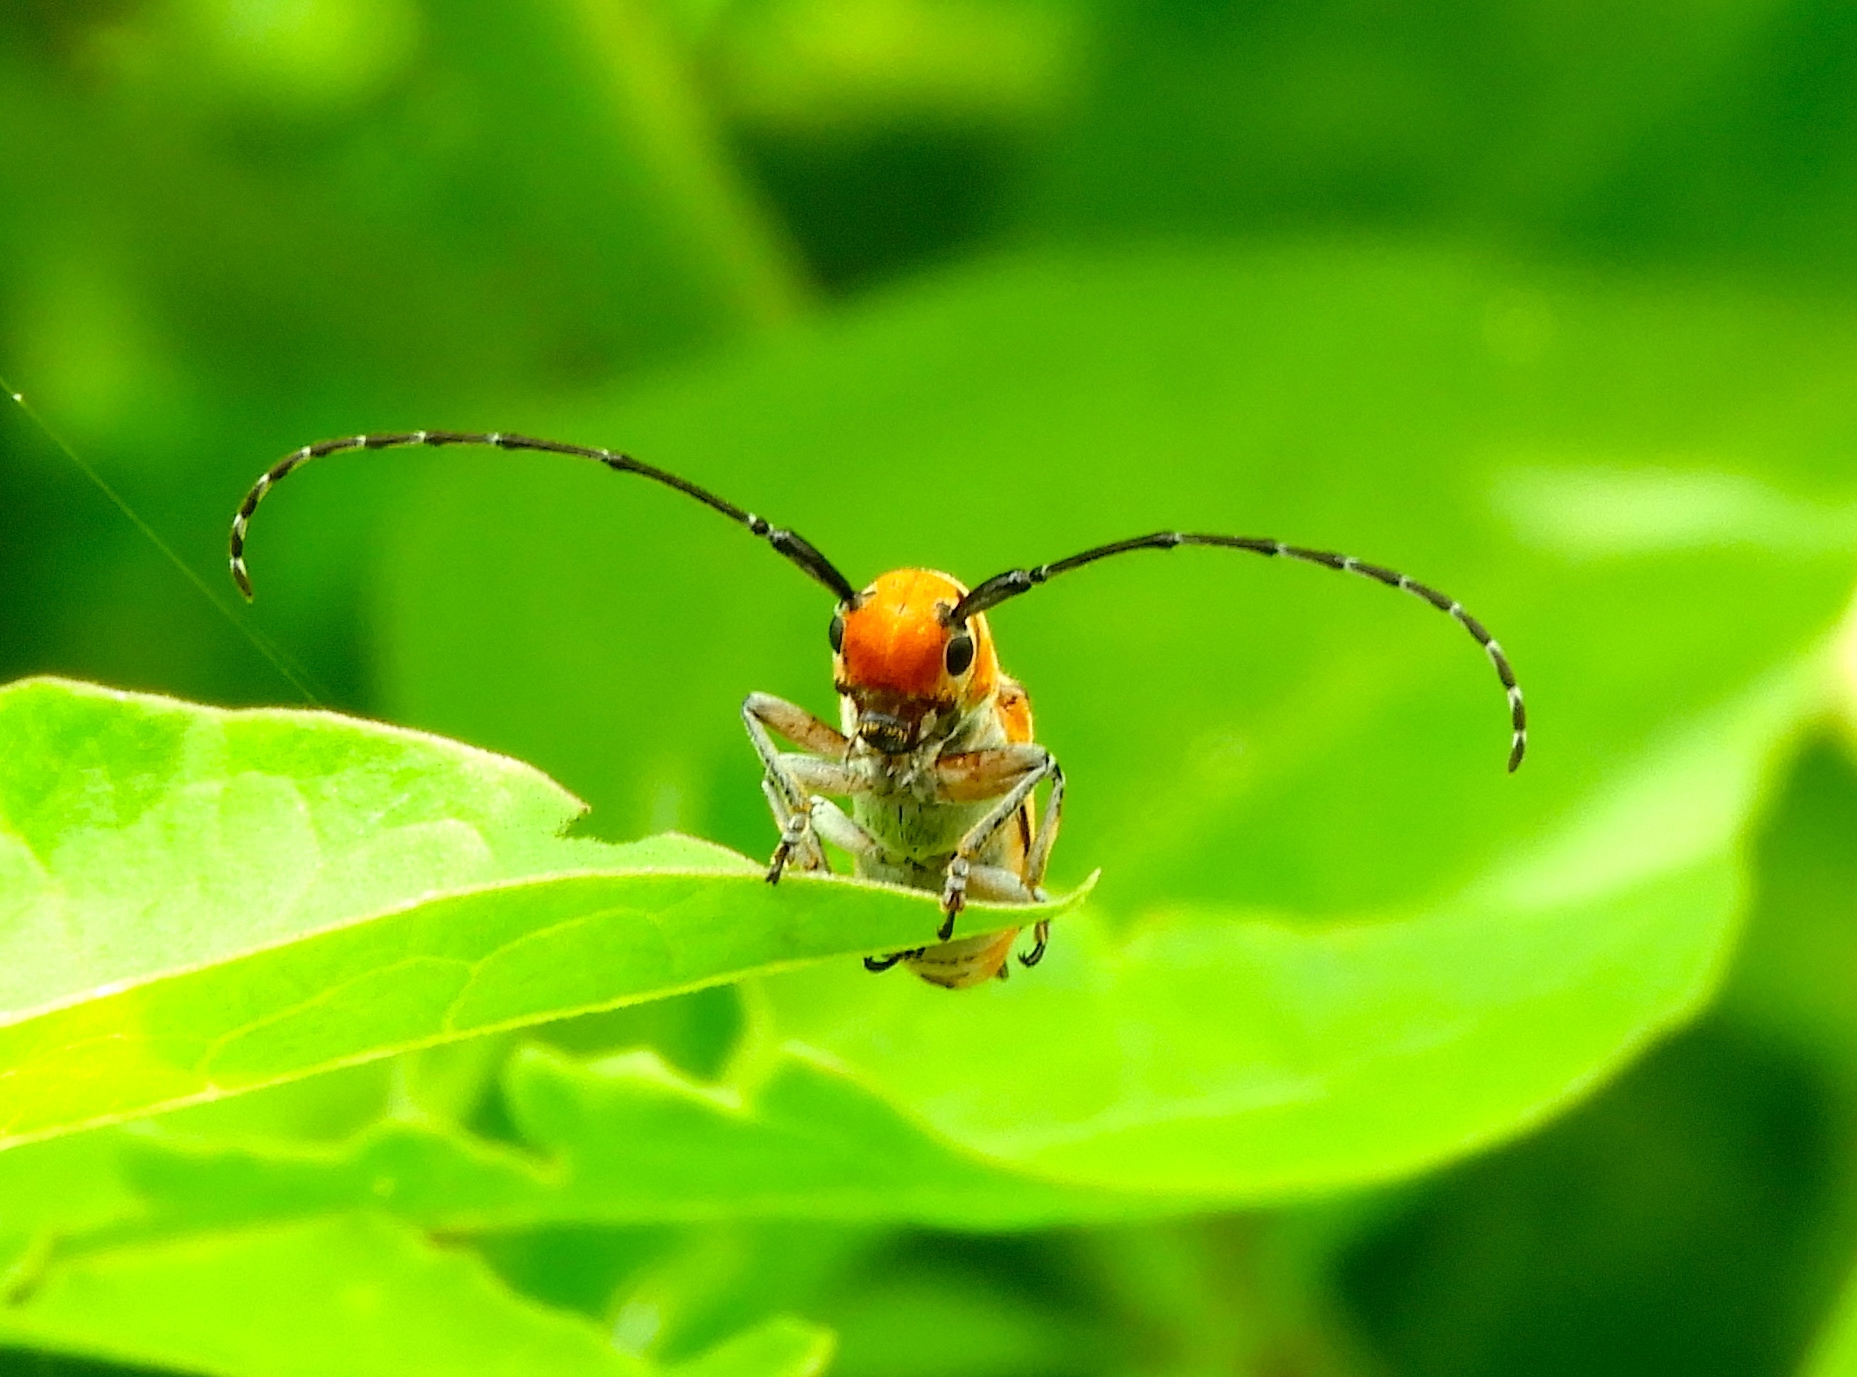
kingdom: Animalia
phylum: Arthropoda
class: Insecta
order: Coleoptera
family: Cerambycidae
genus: Essostrutha
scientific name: Essostrutha laeta
